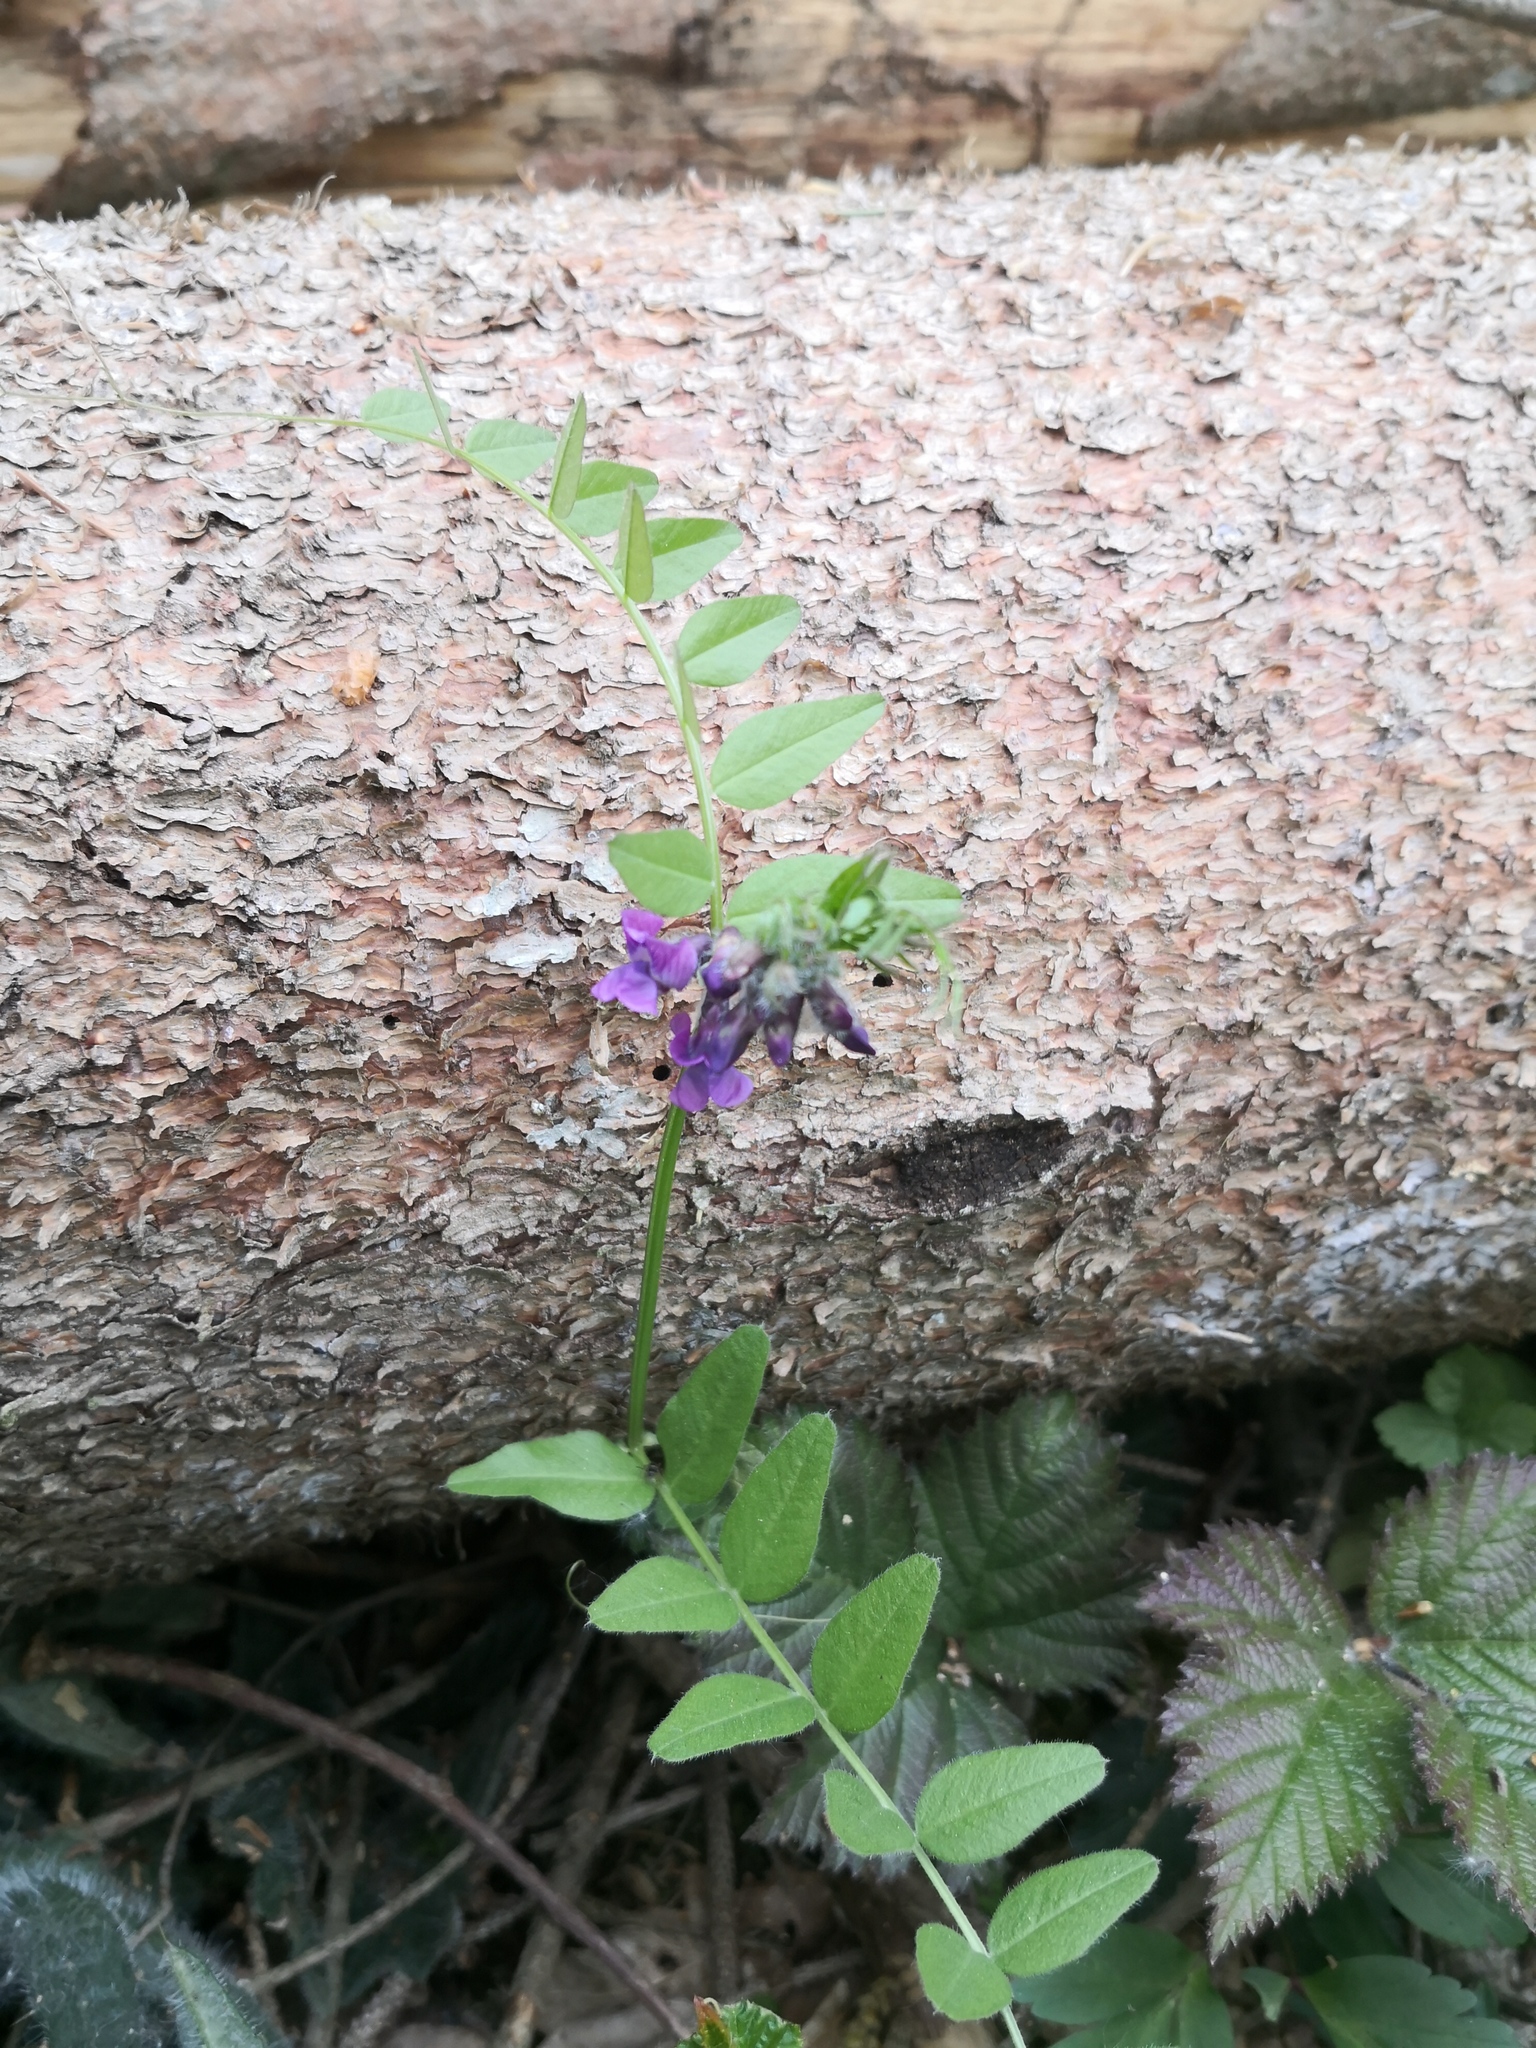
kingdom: Plantae
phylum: Tracheophyta
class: Magnoliopsida
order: Fabales
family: Fabaceae
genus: Vicia
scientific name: Vicia sepium
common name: Bush vetch
